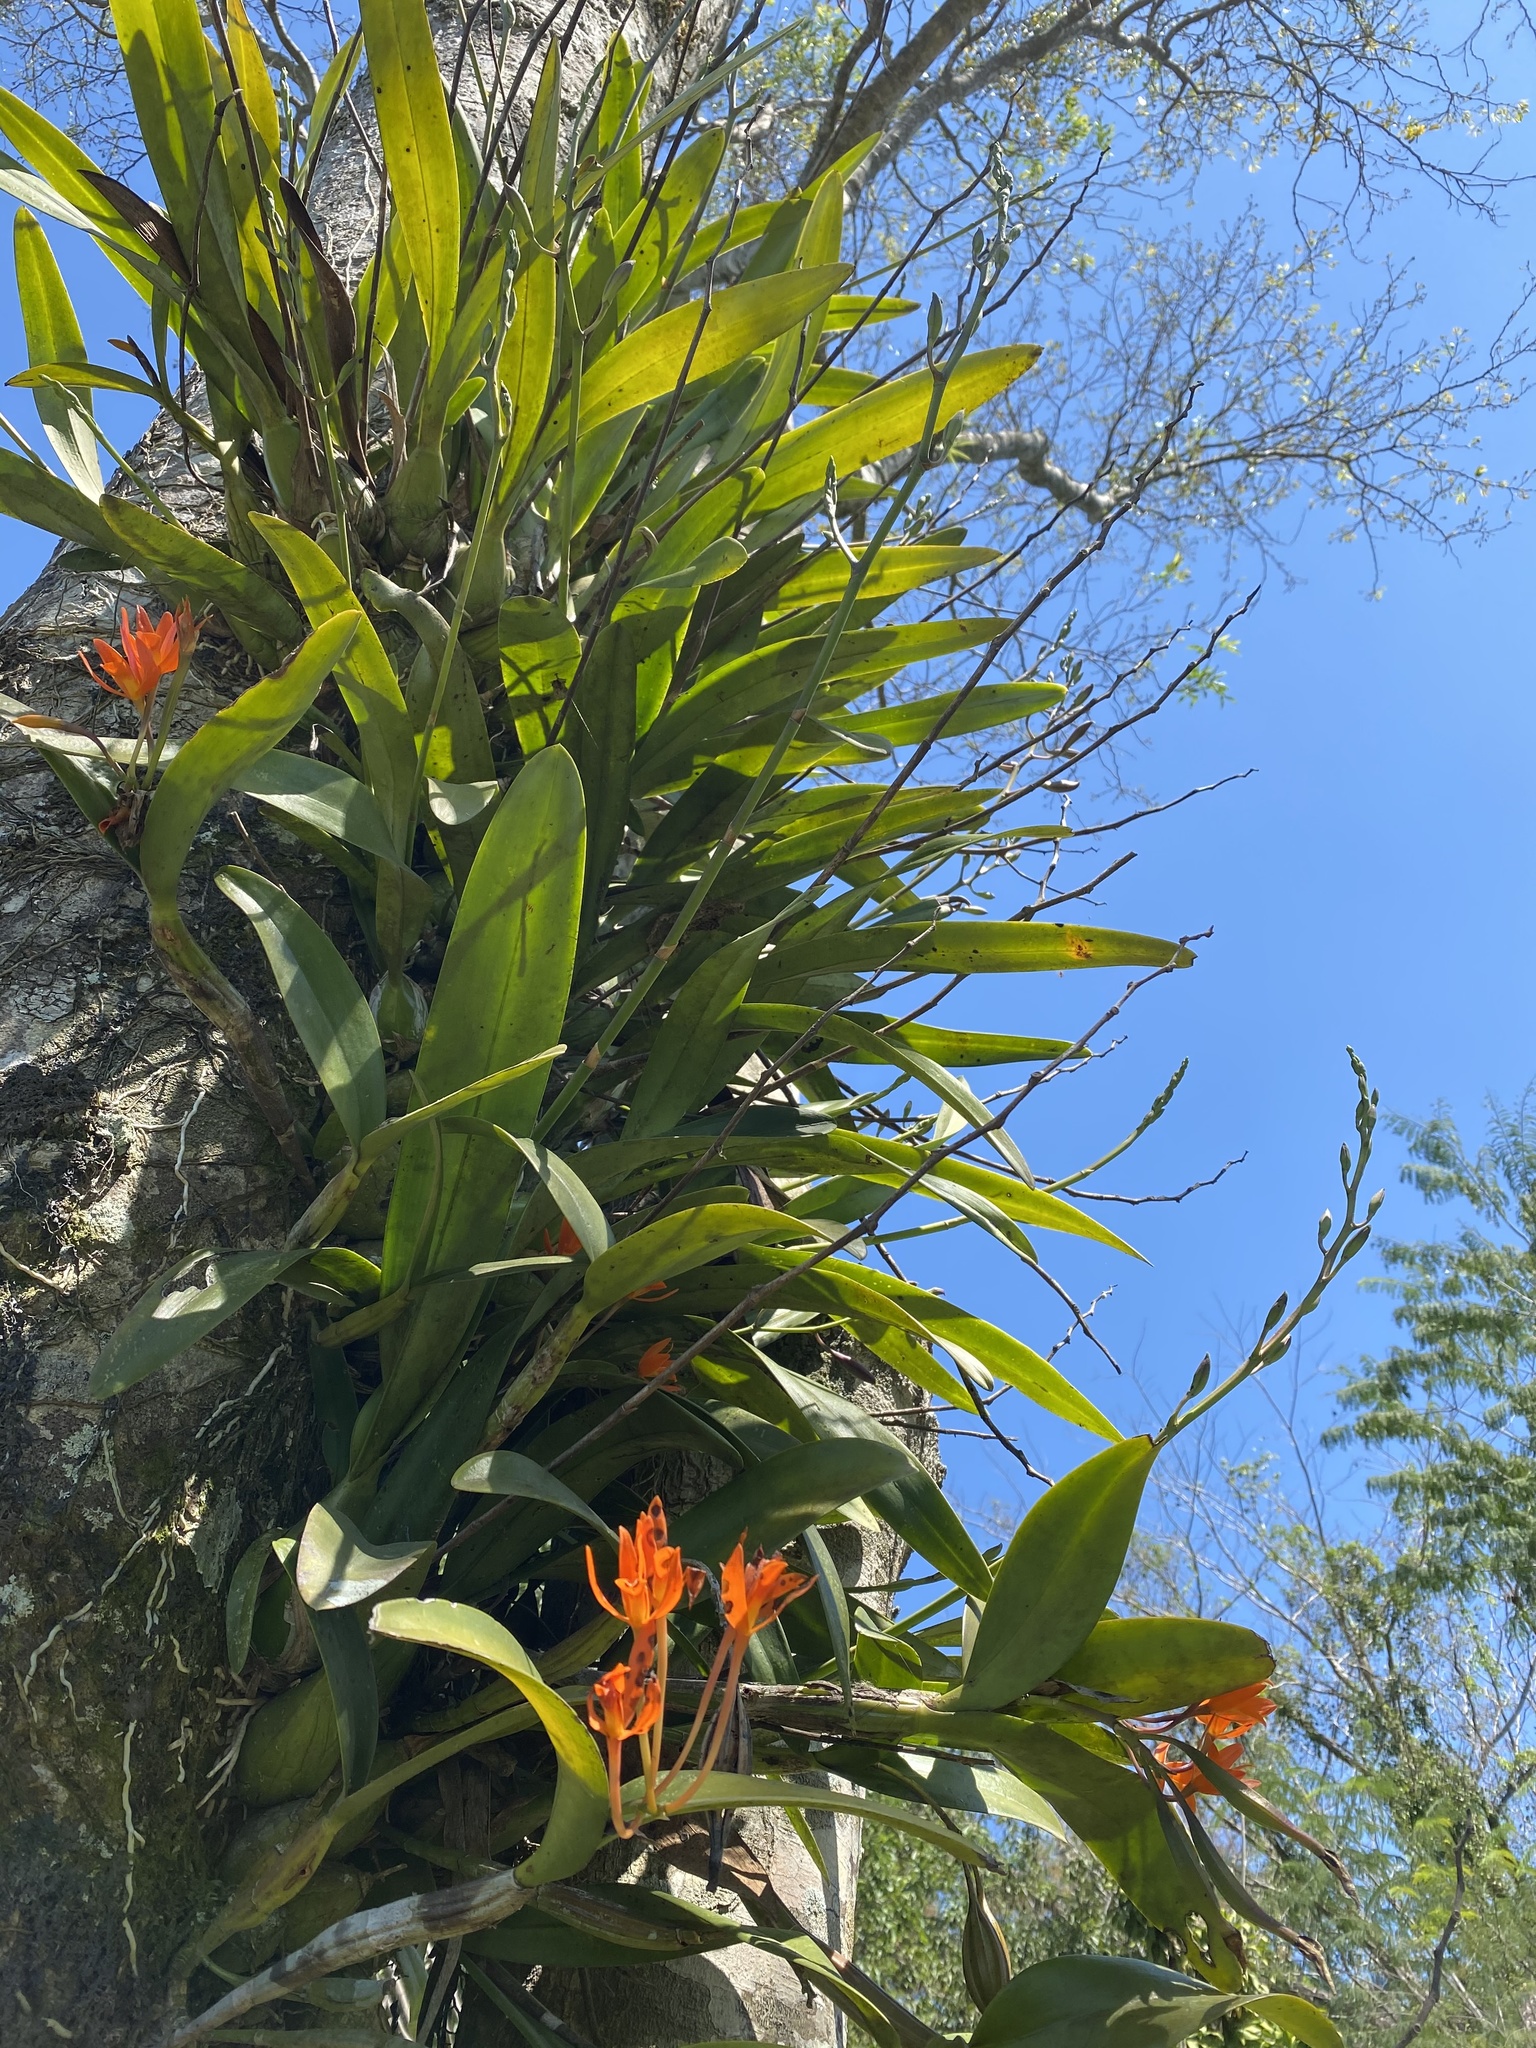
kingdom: Plantae
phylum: Tracheophyta
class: Liliopsida
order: Asparagales
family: Orchidaceae
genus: Guarianthe
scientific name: Guarianthe aurantiaca
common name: Orange cattleya
